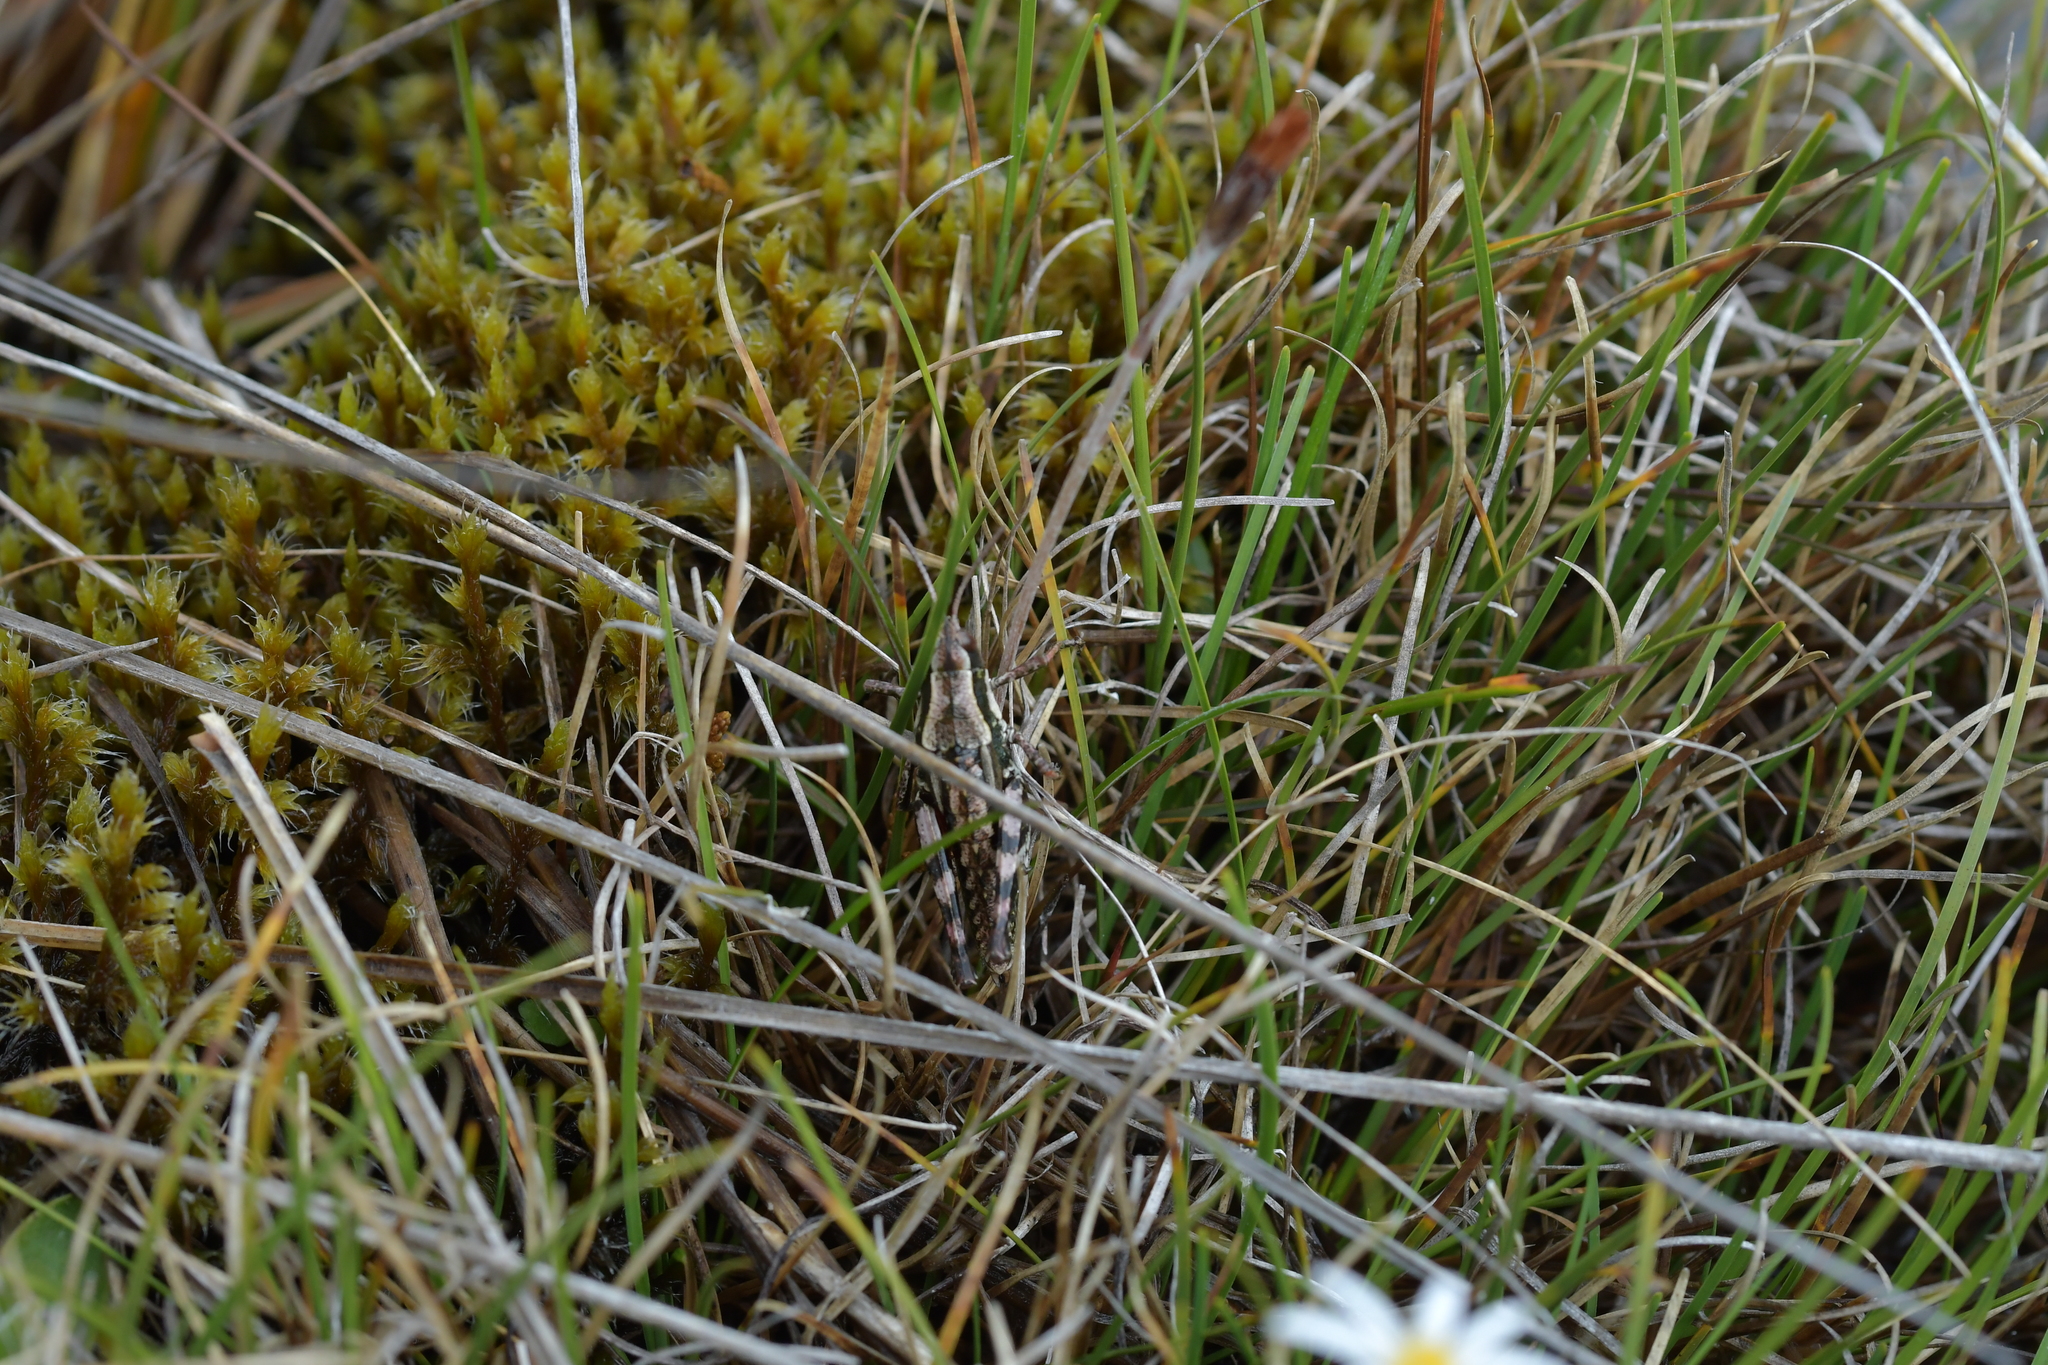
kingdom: Animalia
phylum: Arthropoda
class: Insecta
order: Orthoptera
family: Acrididae
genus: Sigaus
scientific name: Sigaus piliferus
